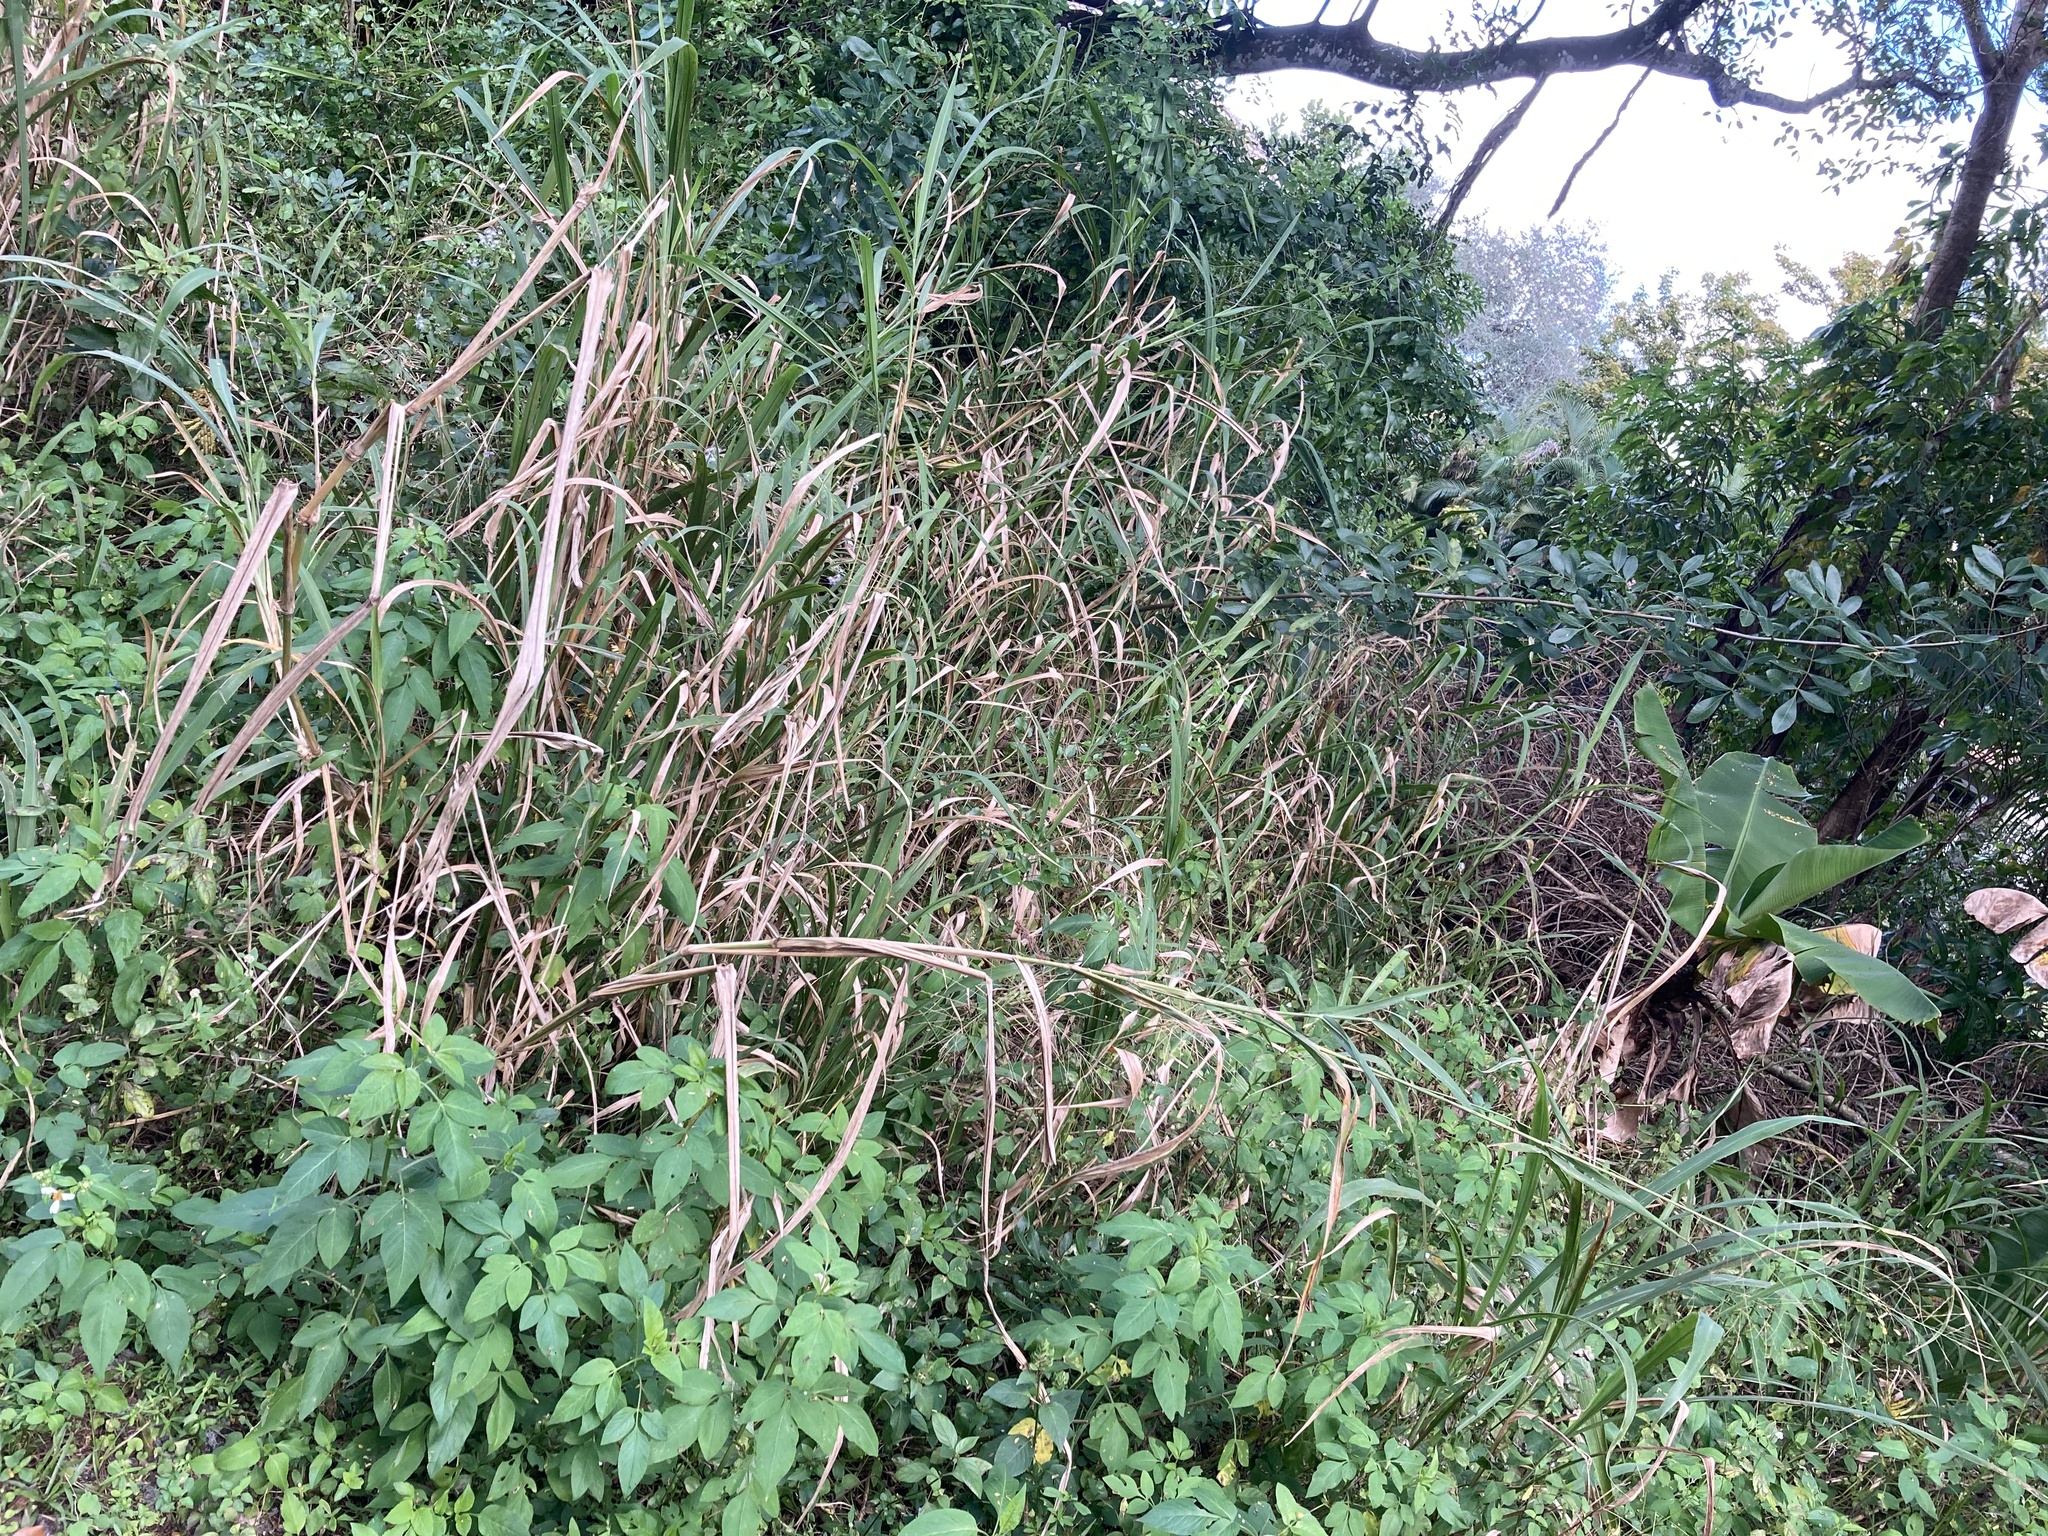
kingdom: Plantae
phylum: Tracheophyta
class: Liliopsida
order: Poales
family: Poaceae
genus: Megathyrsus
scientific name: Megathyrsus maximus
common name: Guineagrass
